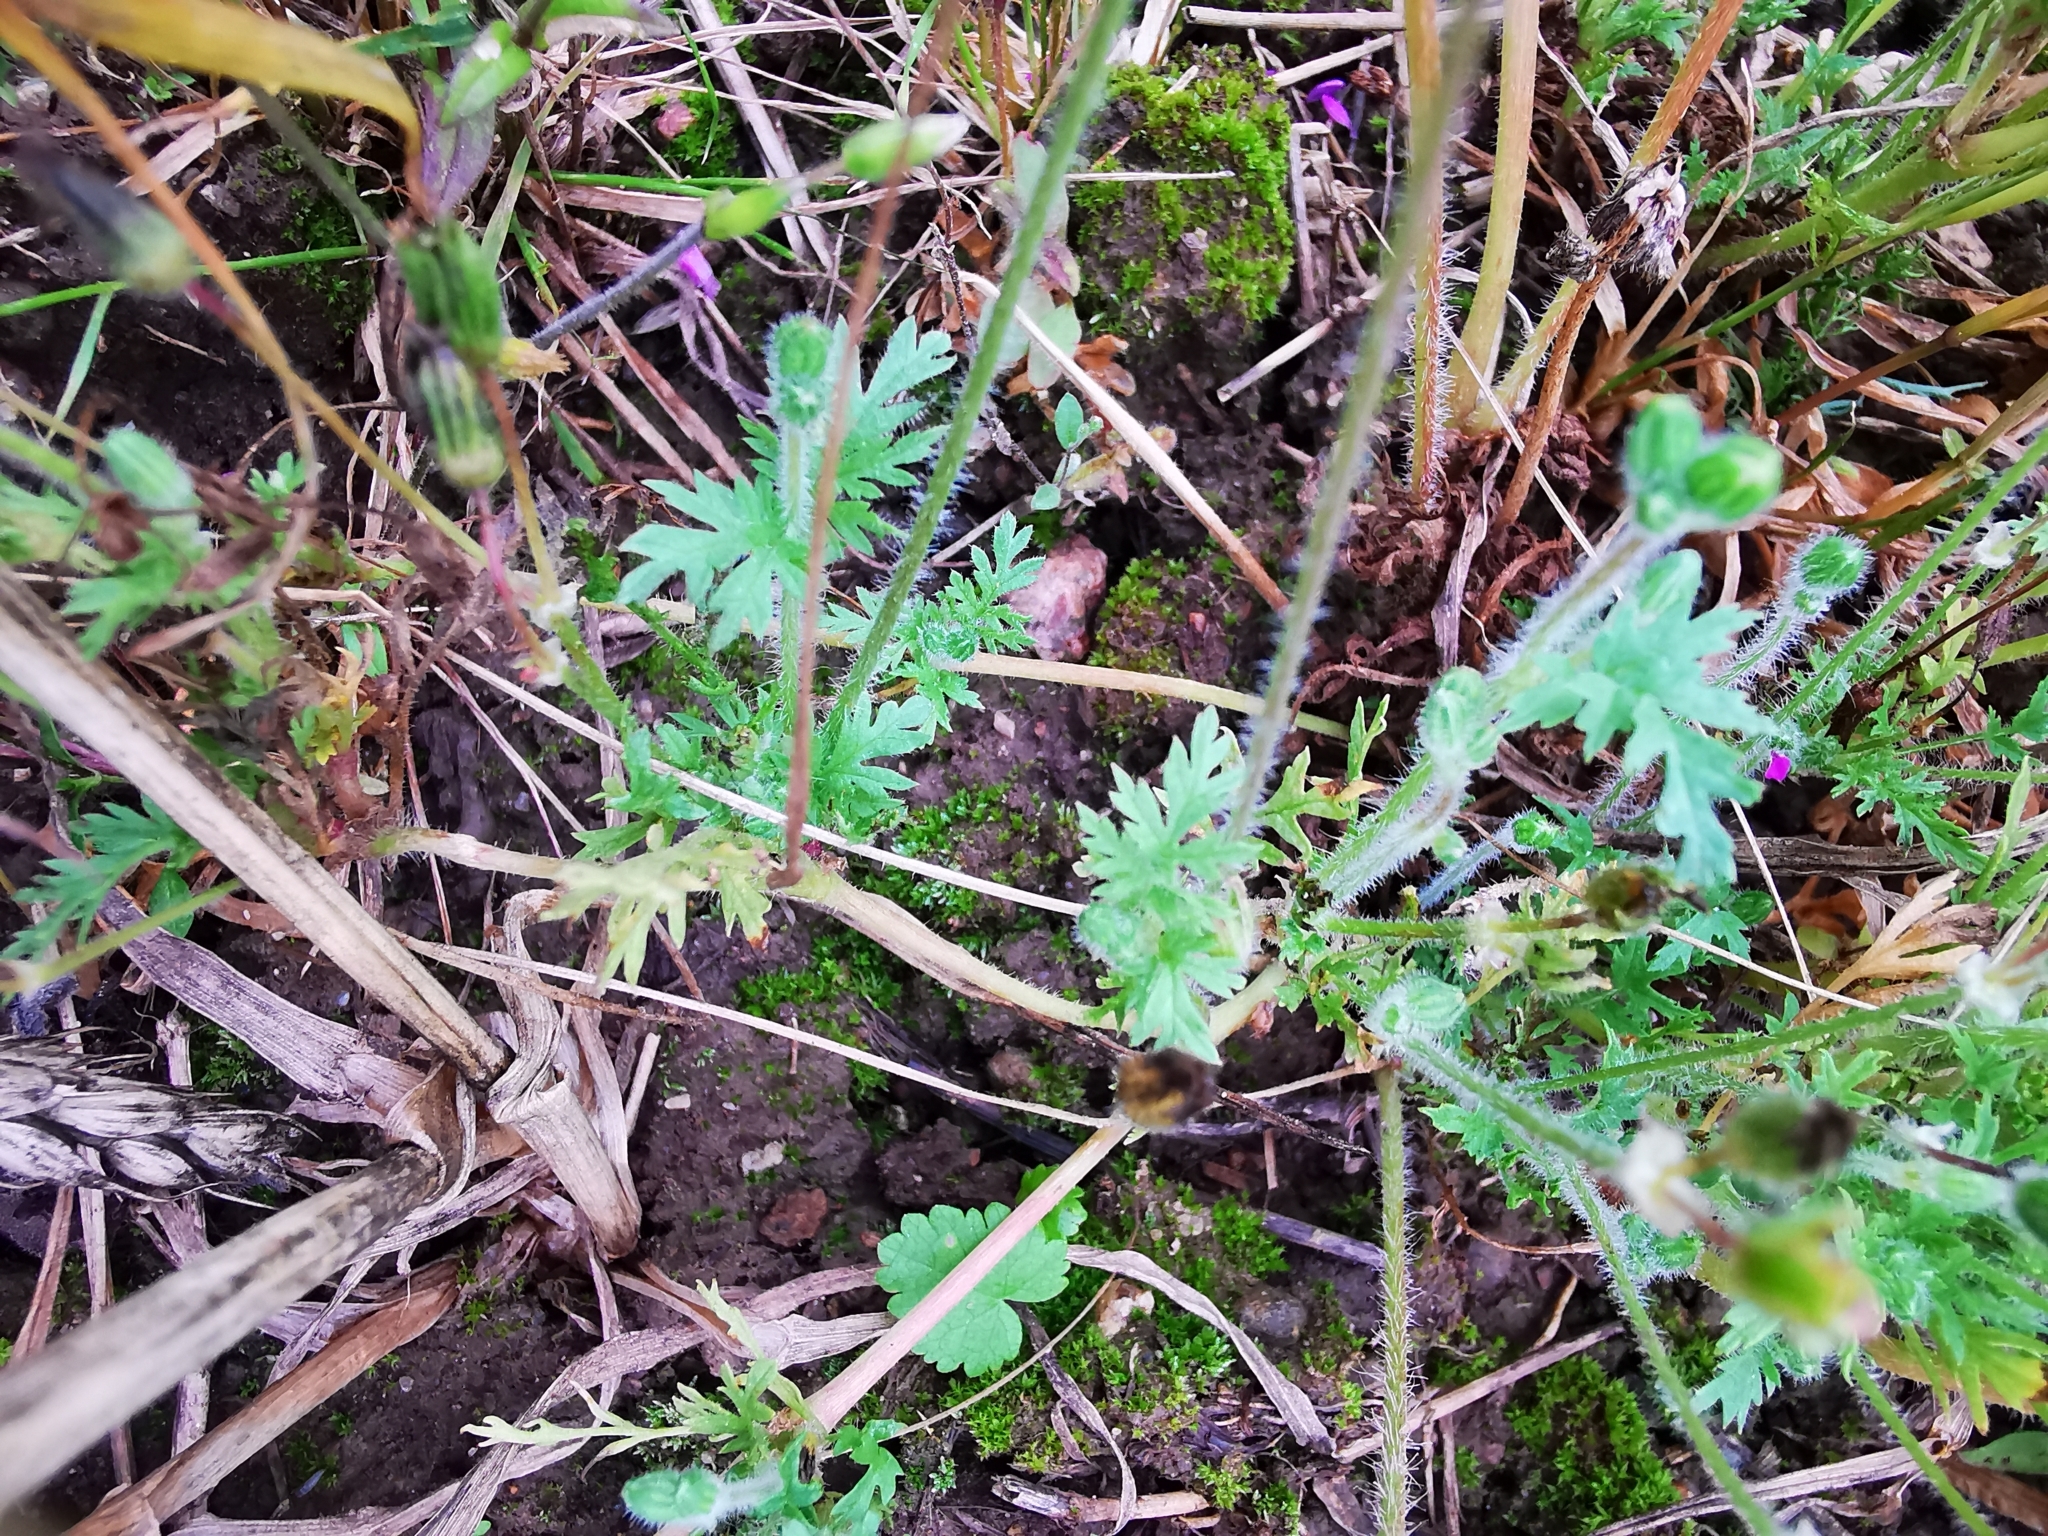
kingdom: Plantae
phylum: Tracheophyta
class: Magnoliopsida
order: Geraniales
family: Geraniaceae
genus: Erodium
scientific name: Erodium cicutarium
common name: Common stork's-bill
